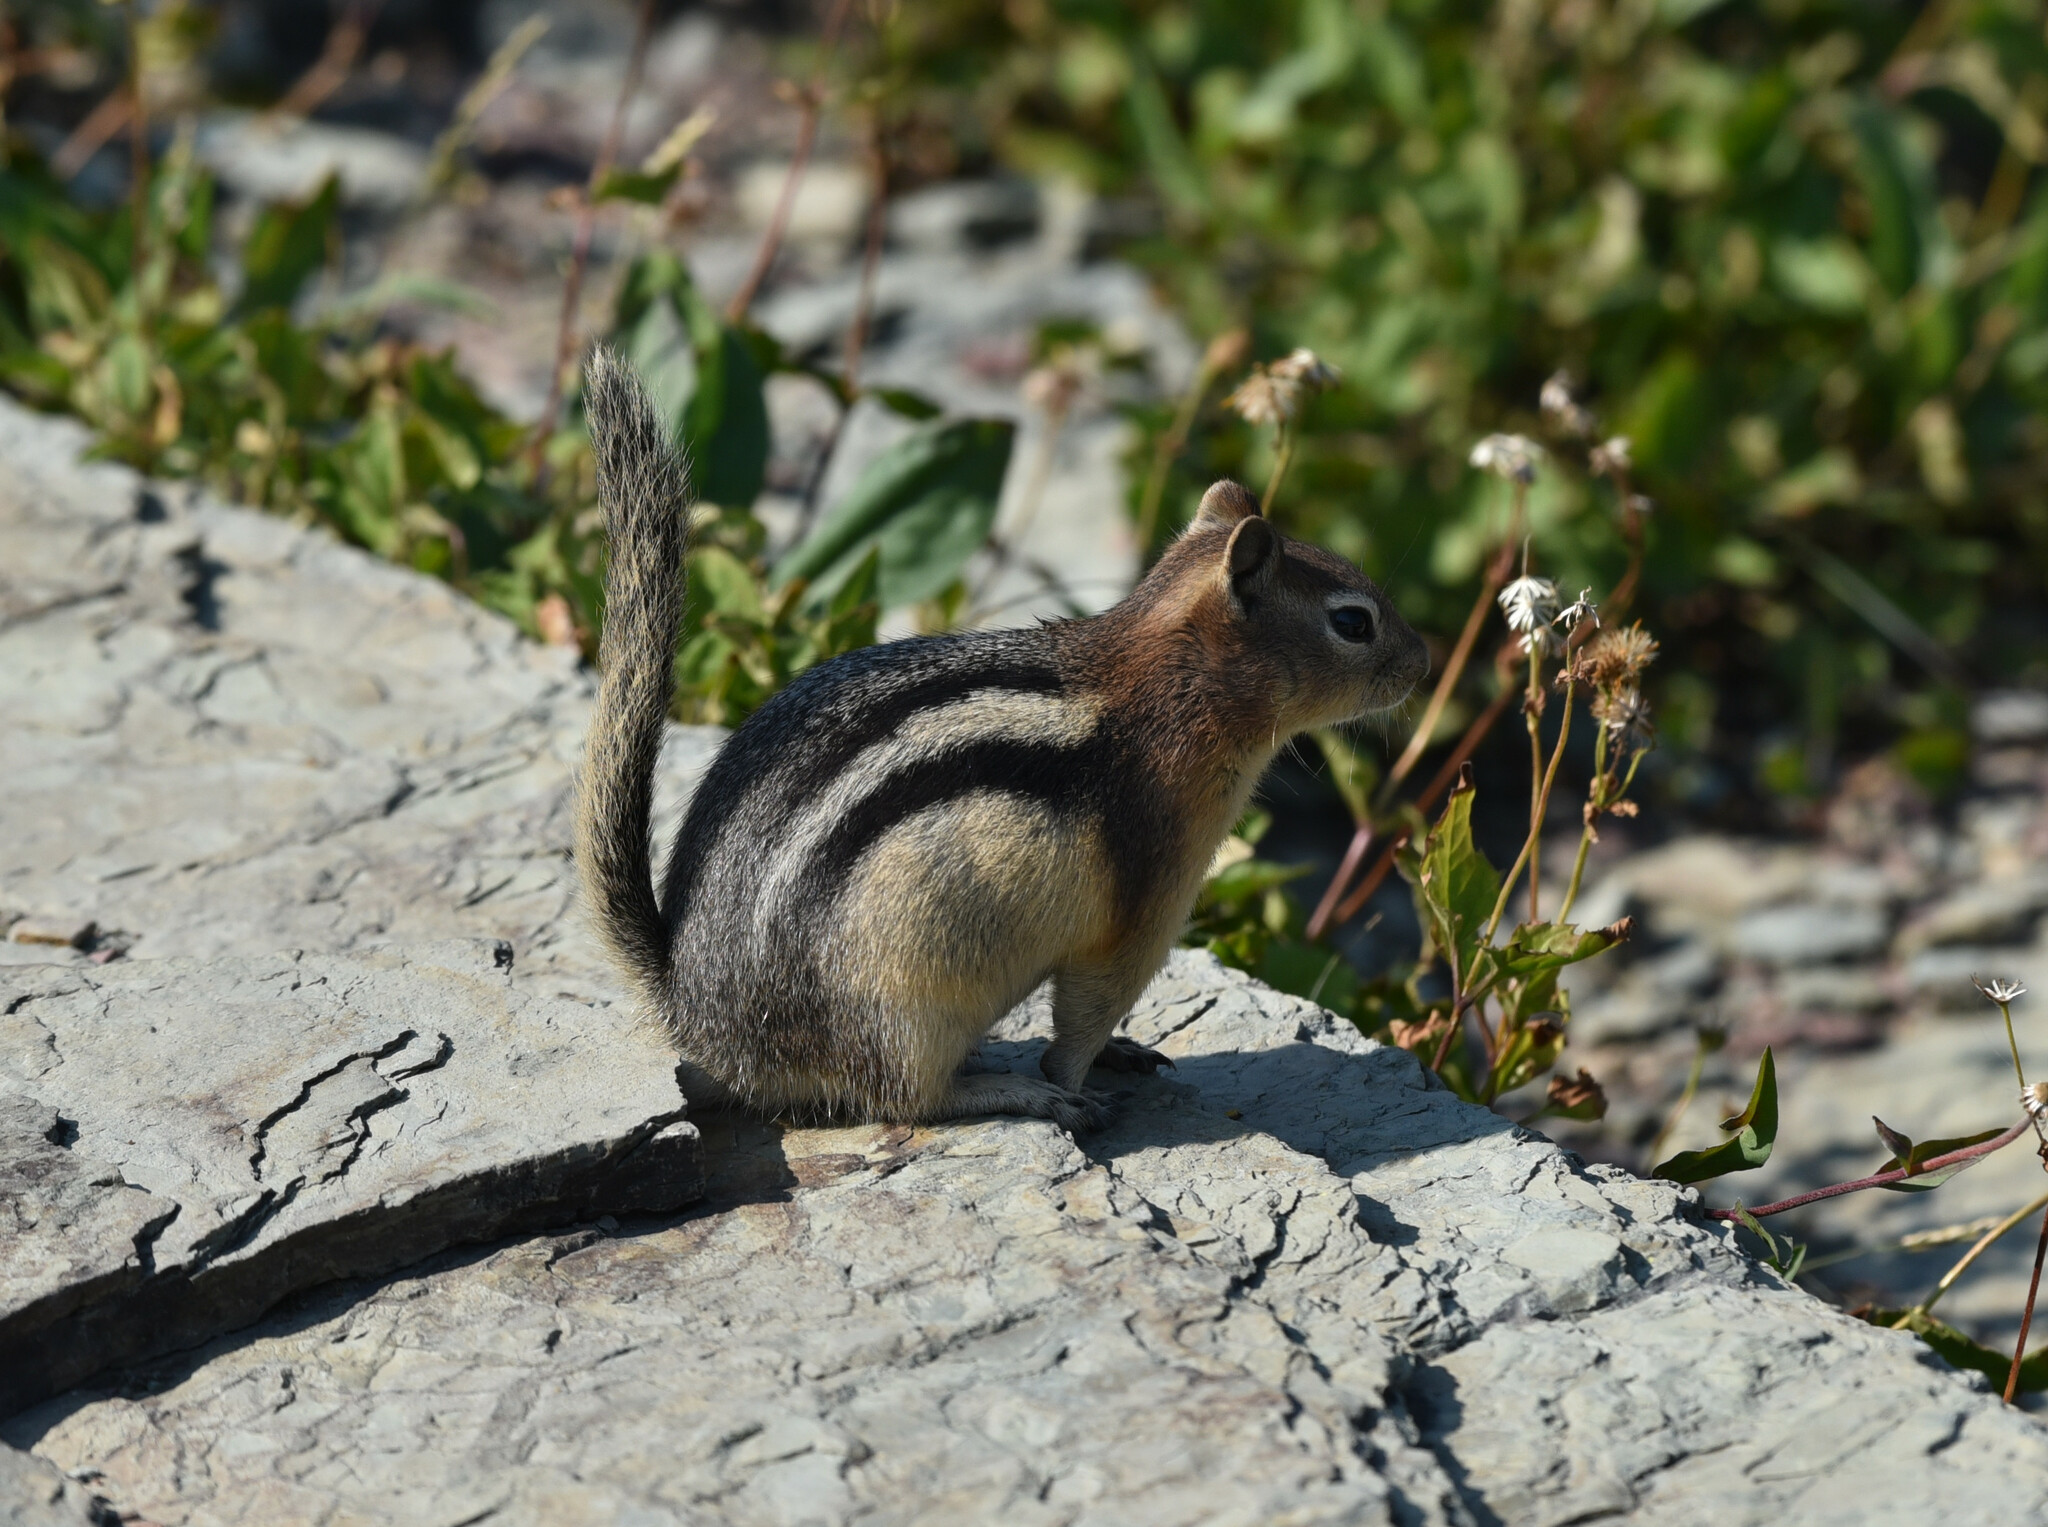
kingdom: Animalia
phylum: Chordata
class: Mammalia
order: Rodentia
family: Sciuridae
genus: Callospermophilus
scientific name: Callospermophilus lateralis
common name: Golden-mantled ground squirrel
